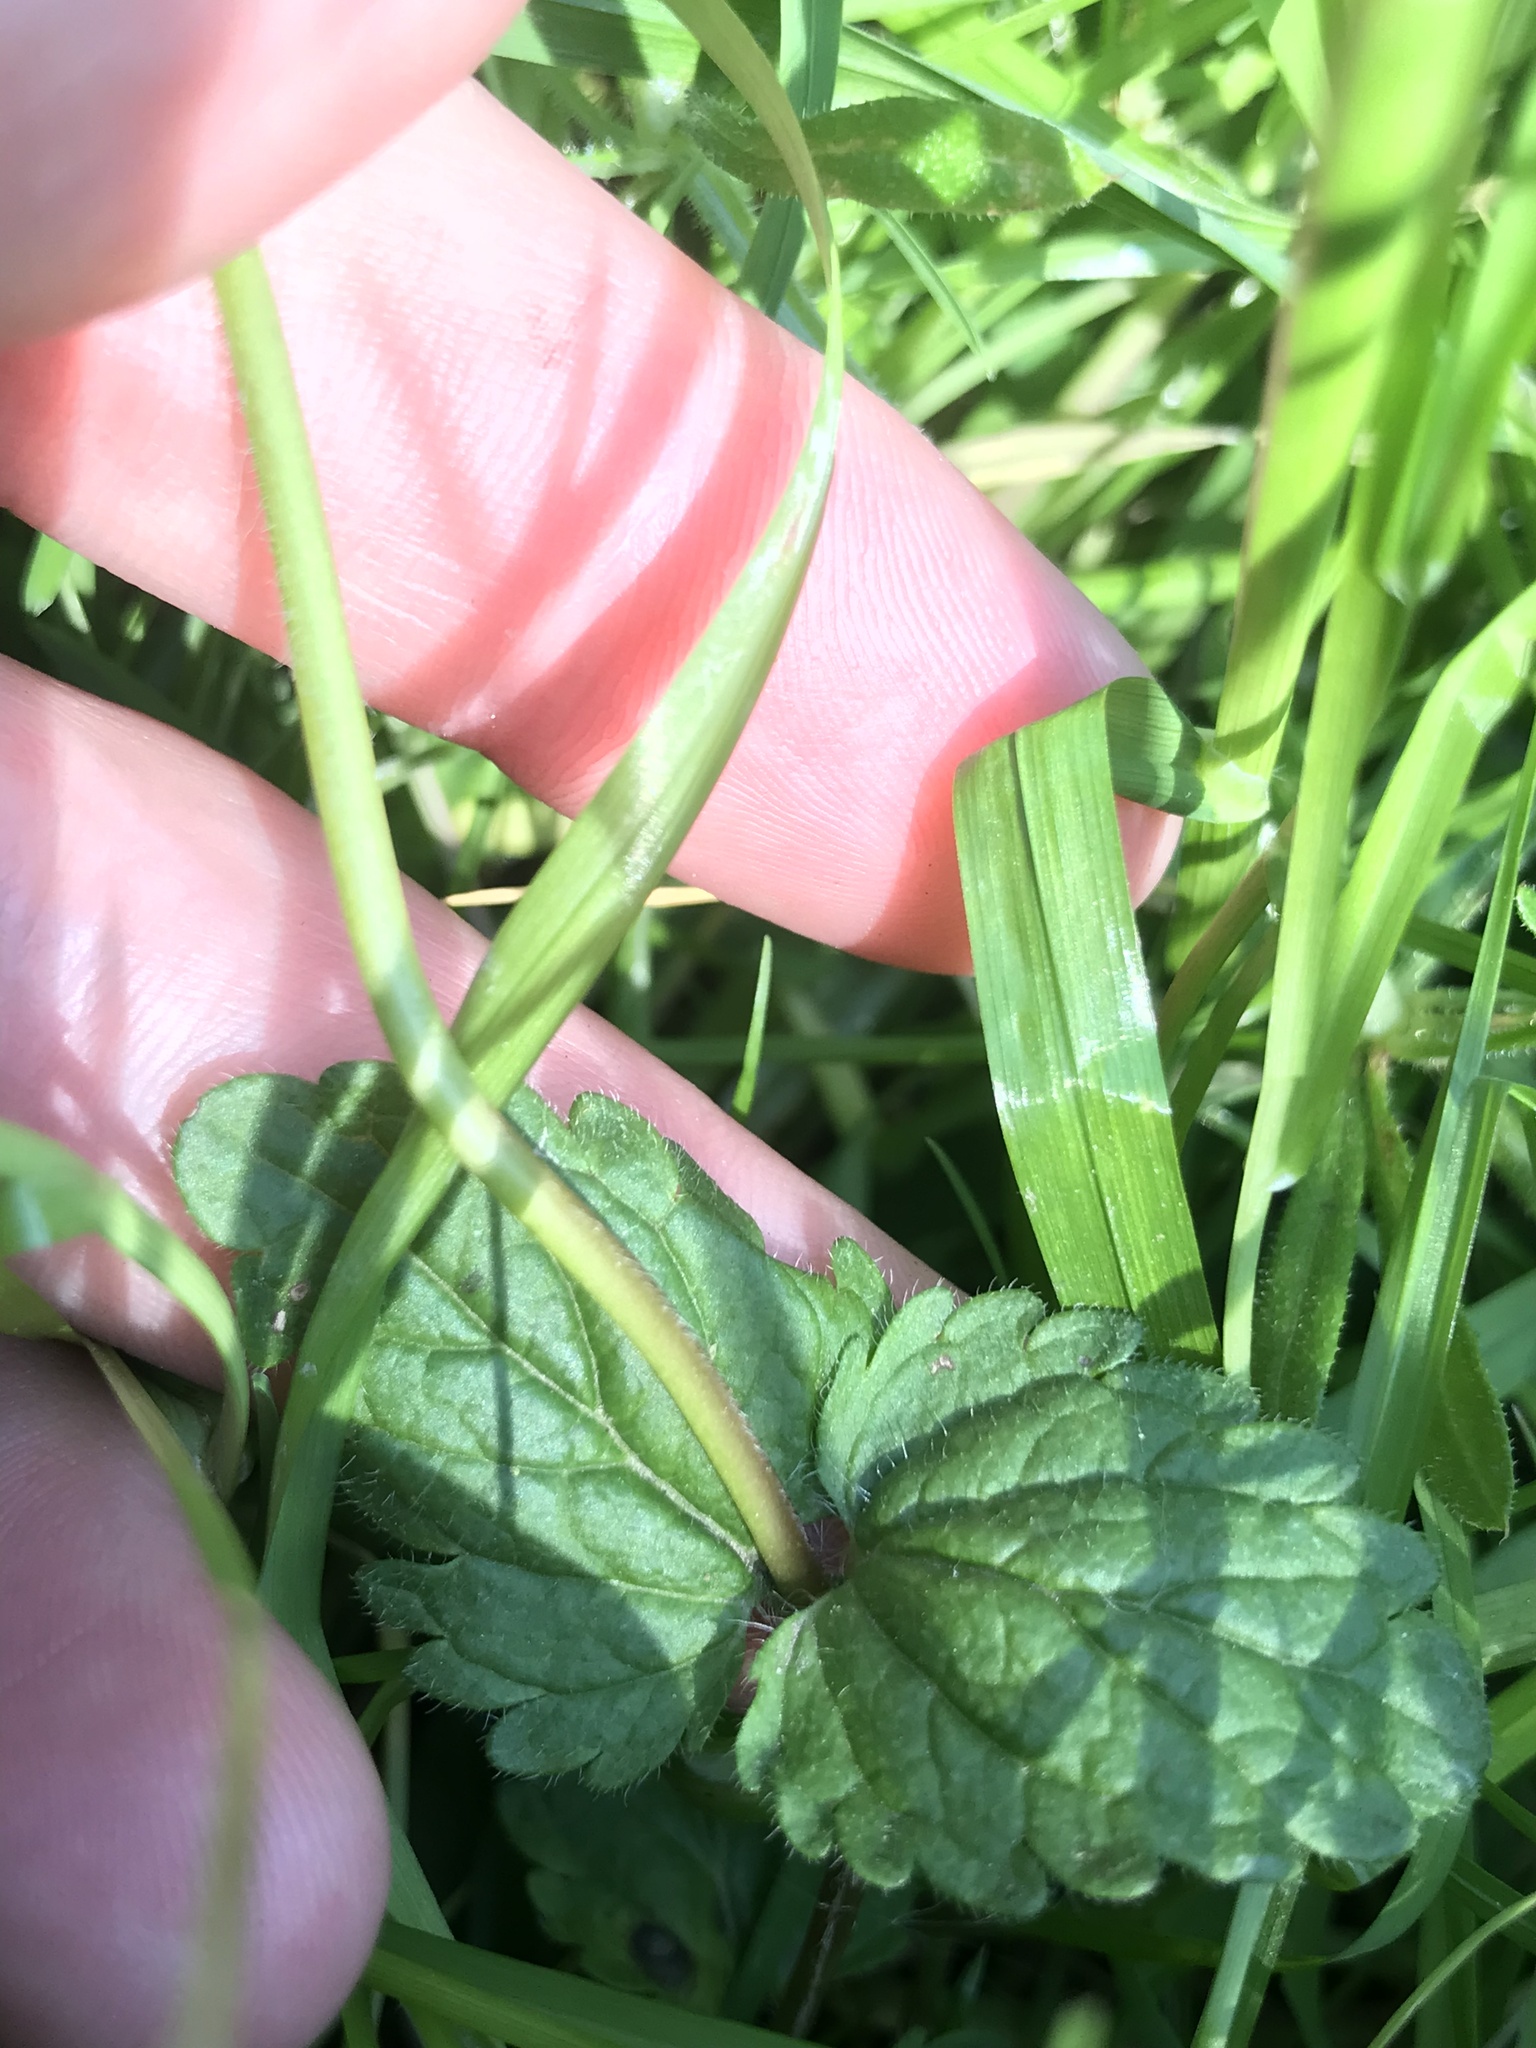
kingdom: Plantae
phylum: Tracheophyta
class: Magnoliopsida
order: Lamiales
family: Plantaginaceae
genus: Veronica
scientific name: Veronica chamaedrys
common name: Germander speedwell
